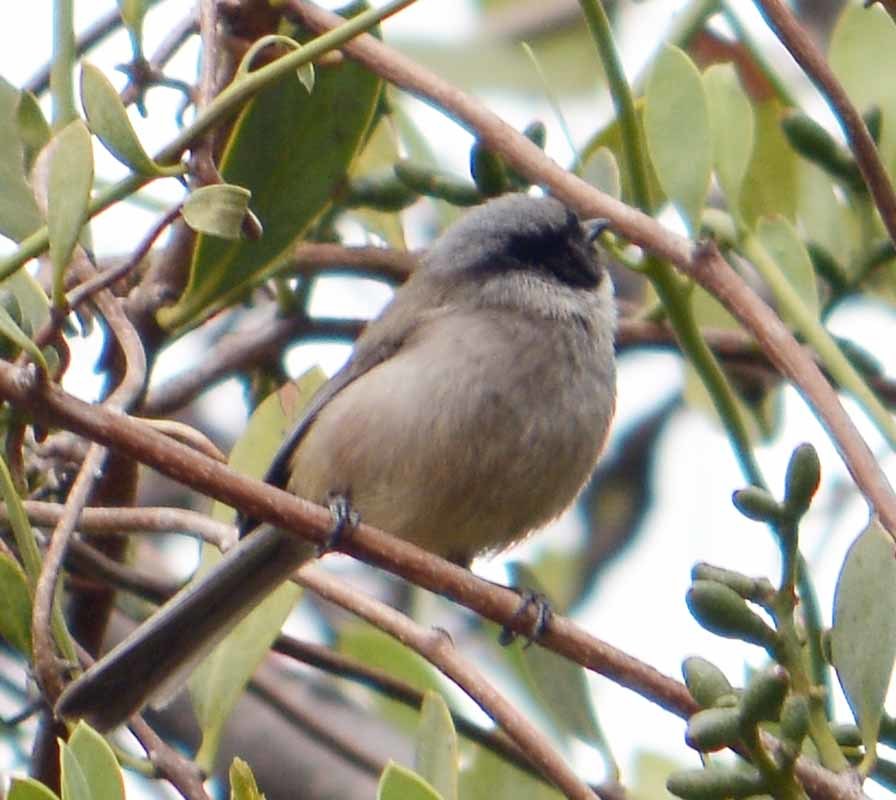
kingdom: Animalia
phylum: Chordata
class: Aves
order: Passeriformes
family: Aegithalidae
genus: Psaltriparus
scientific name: Psaltriparus minimus
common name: American bushtit
